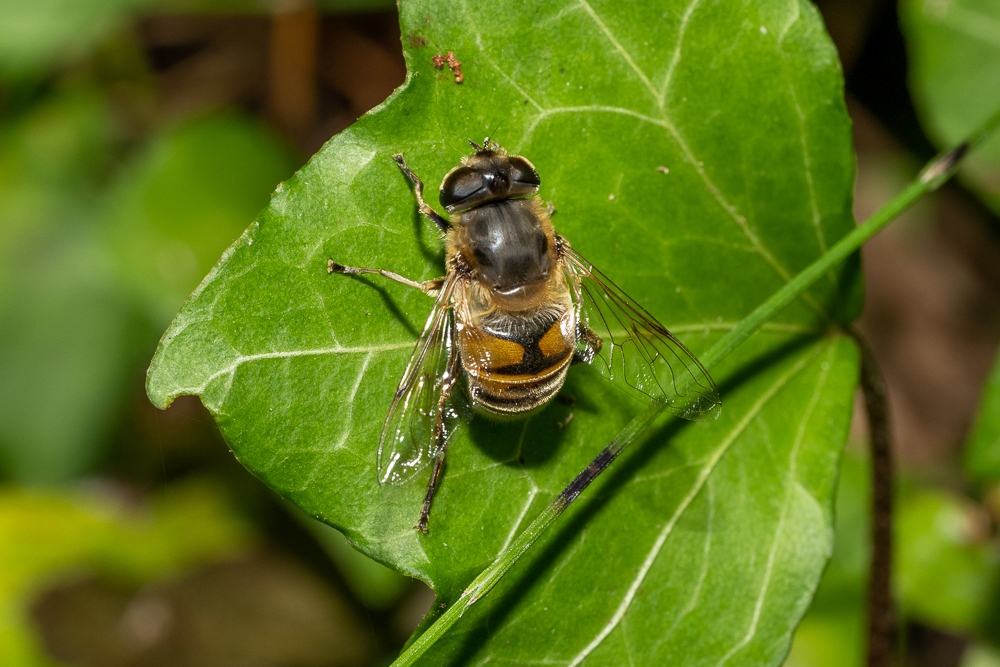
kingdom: Animalia
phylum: Arthropoda
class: Insecta
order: Diptera
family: Syrphidae
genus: Eristalis
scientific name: Eristalis tenax
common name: Drone fly
